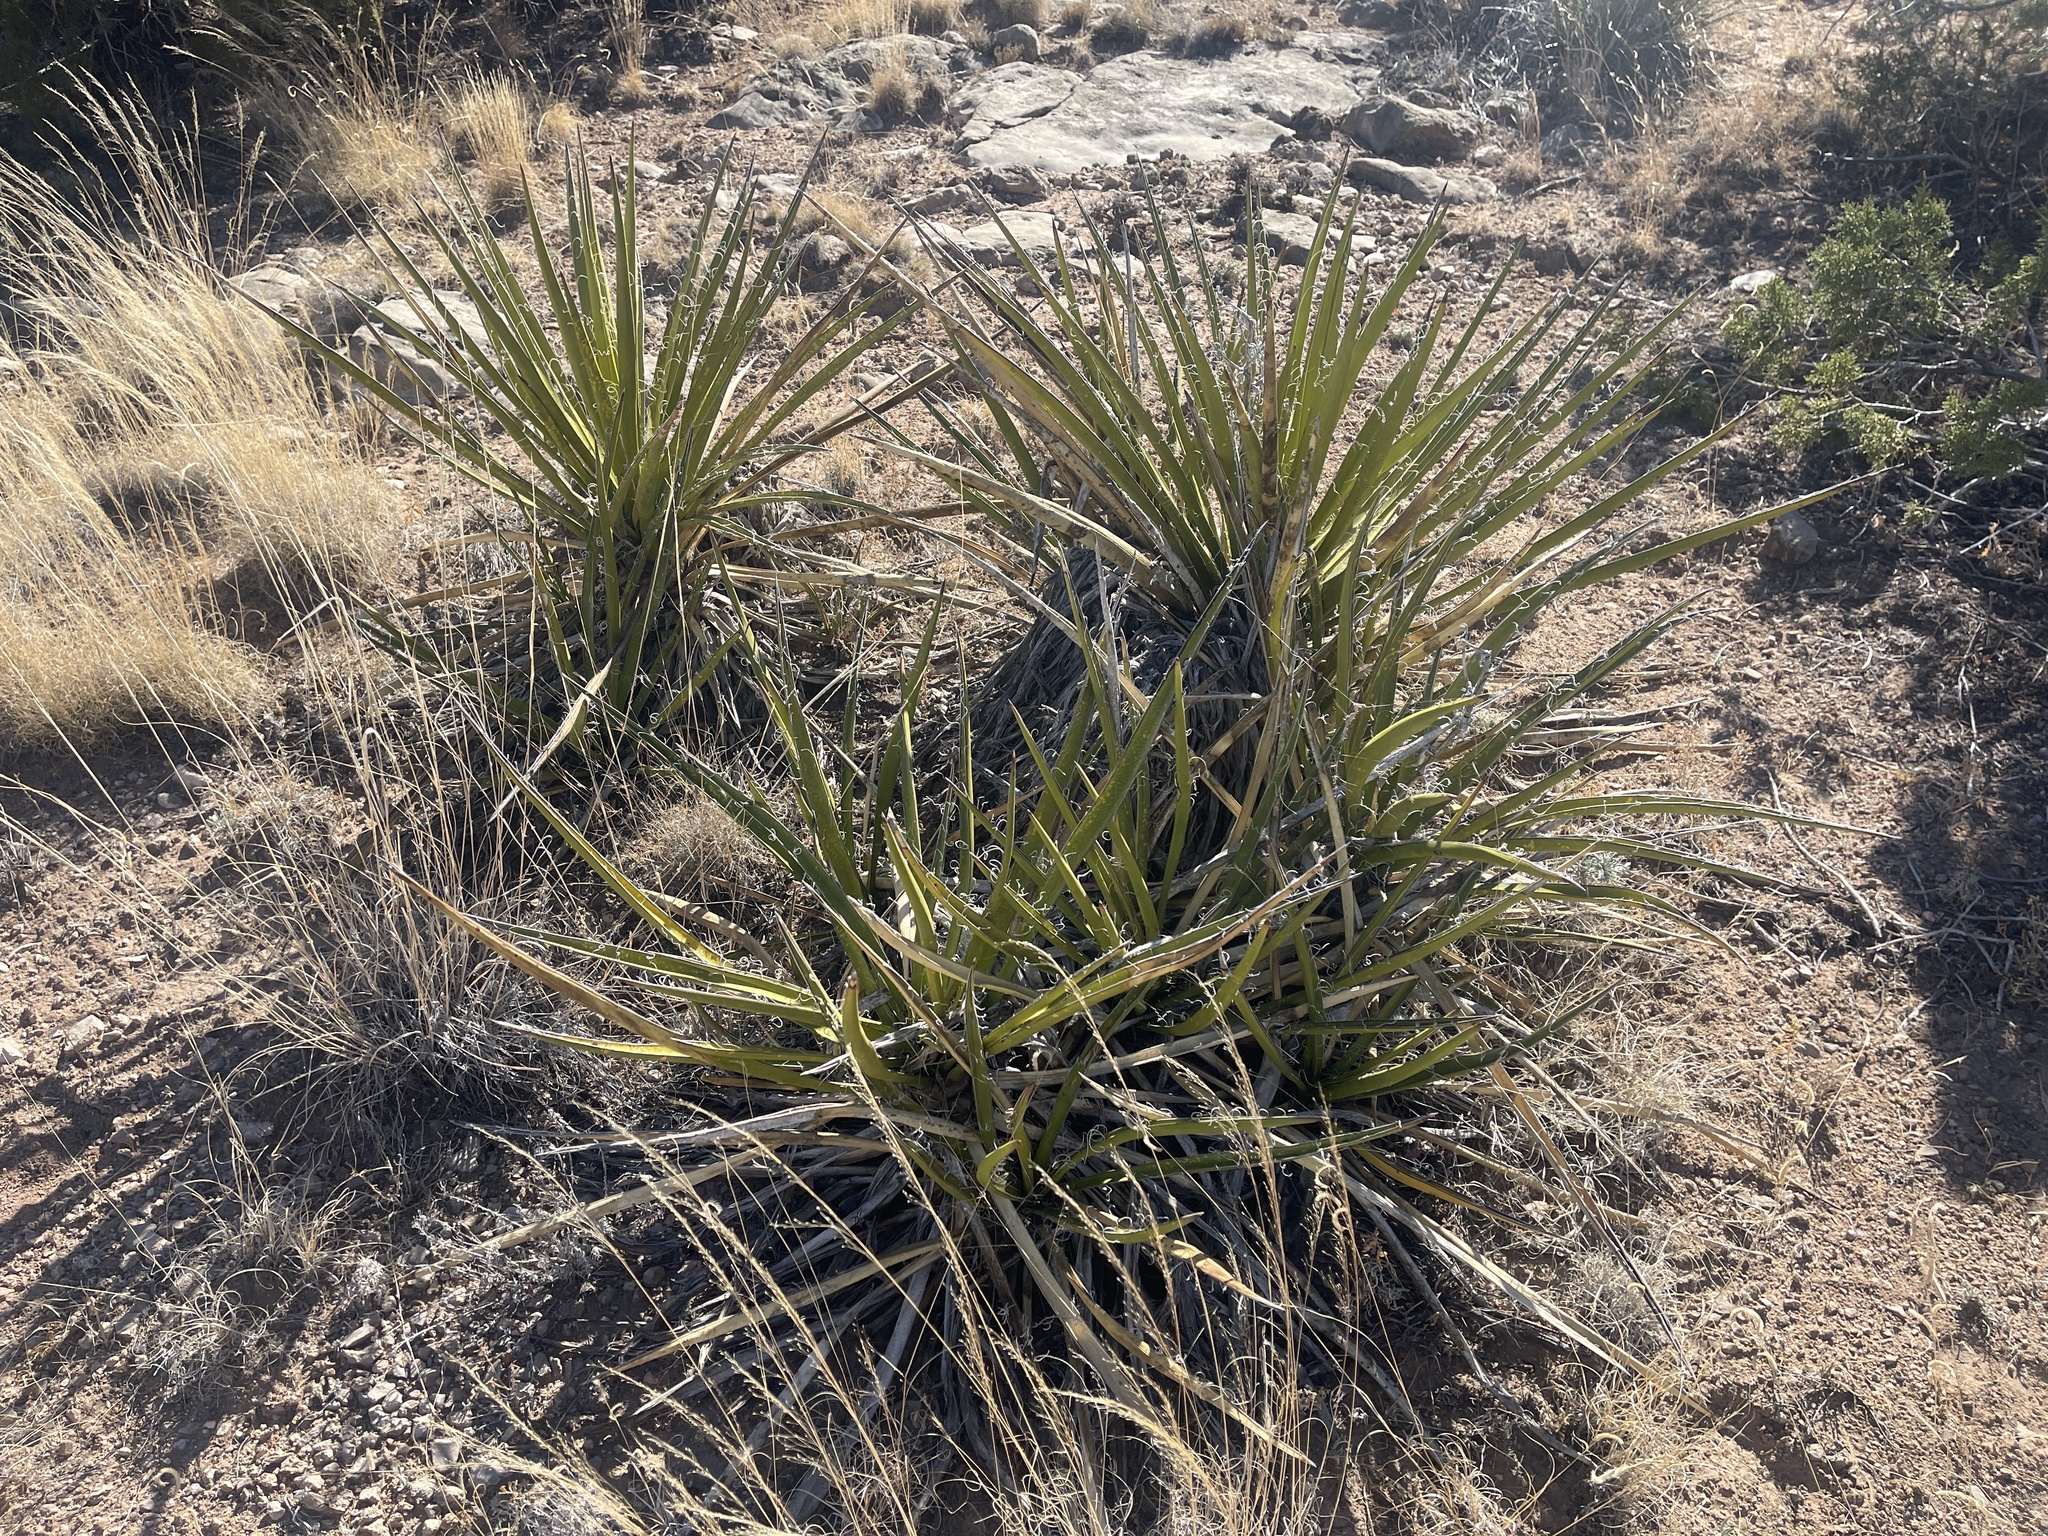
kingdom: Plantae
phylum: Tracheophyta
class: Liliopsida
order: Asparagales
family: Asparagaceae
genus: Yucca
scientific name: Yucca baccata
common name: Banana yucca
